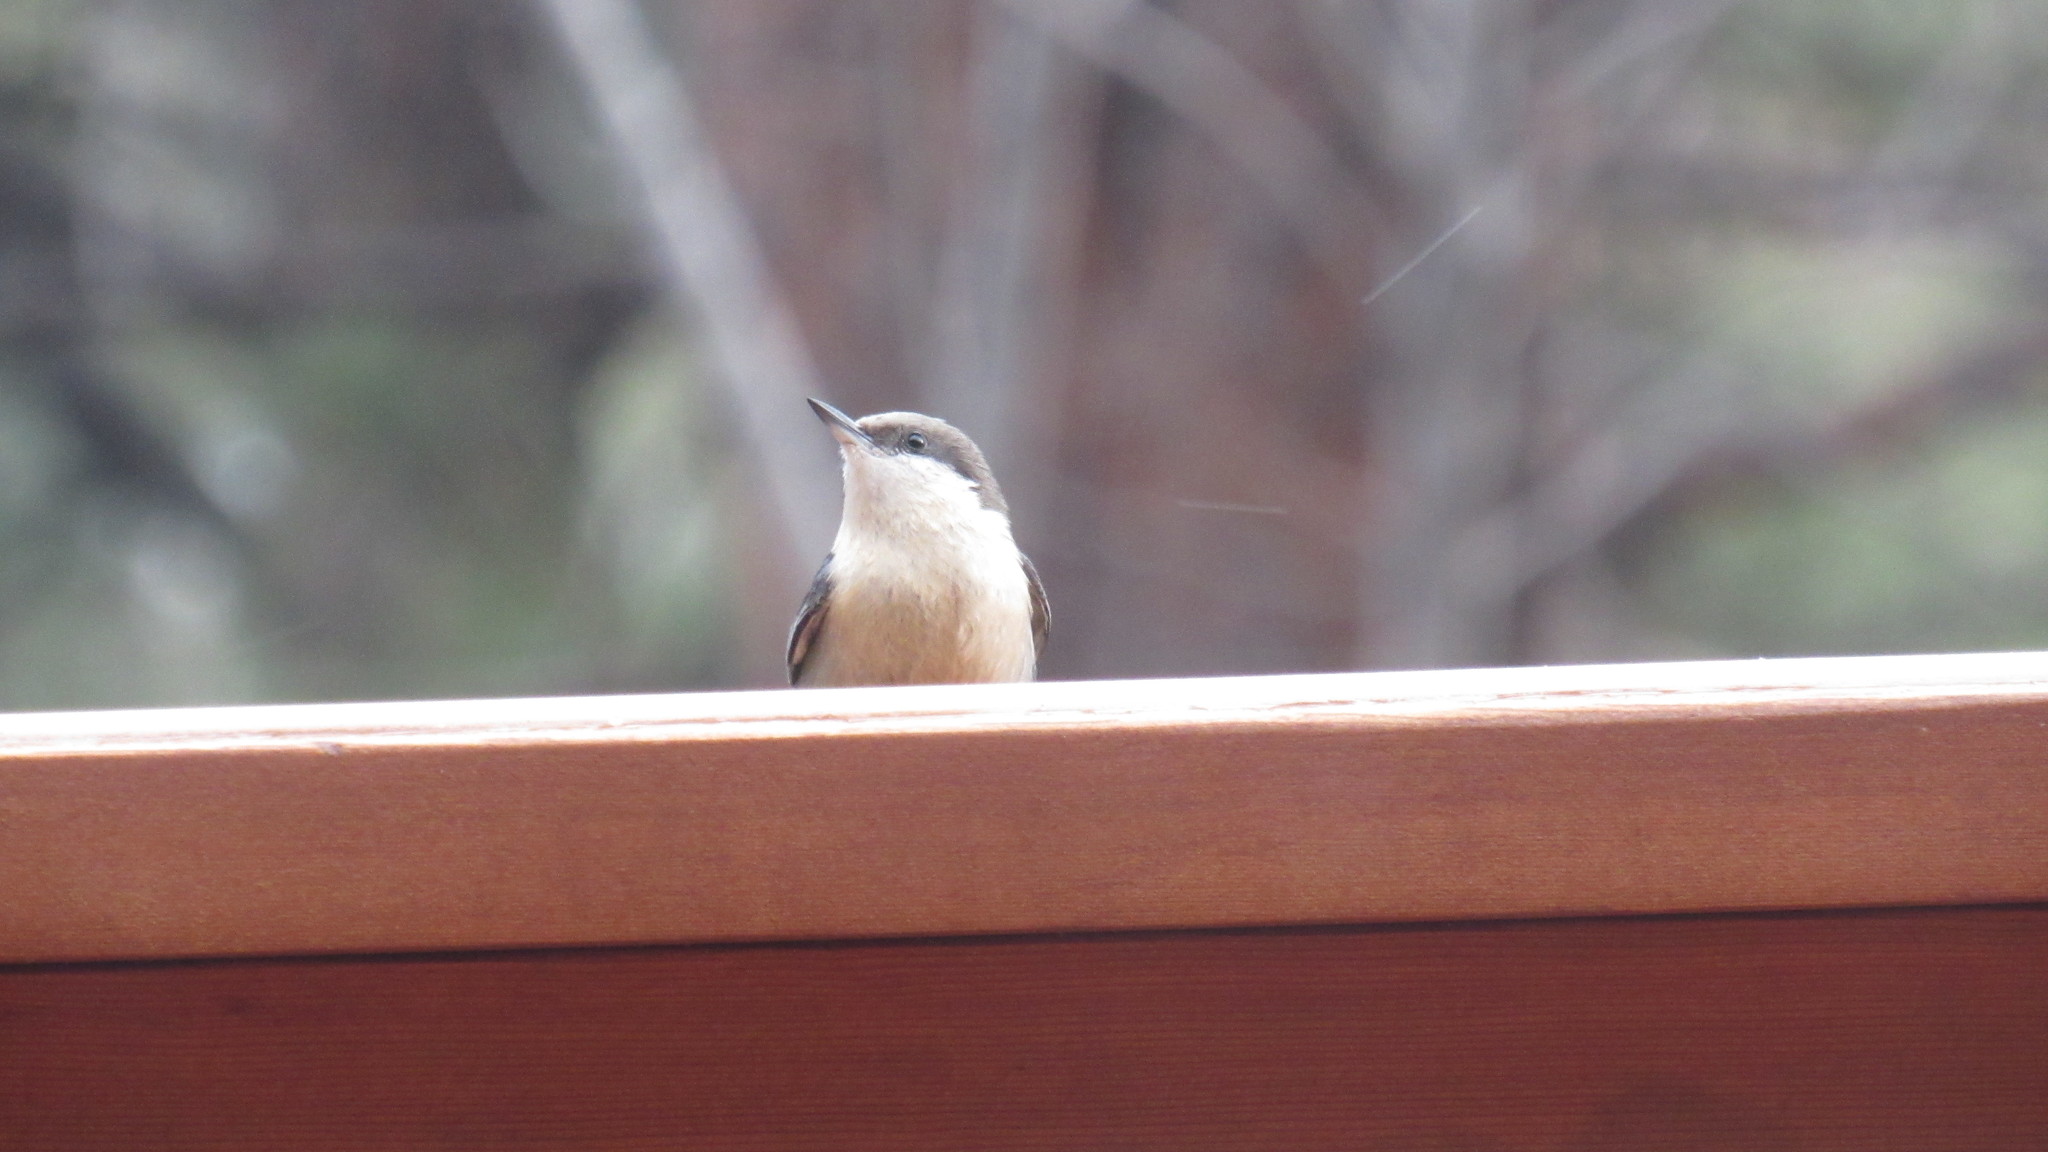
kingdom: Animalia
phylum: Chordata
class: Aves
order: Passeriformes
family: Sittidae
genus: Sitta
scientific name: Sitta pygmaea
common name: Pygmy nuthatch
